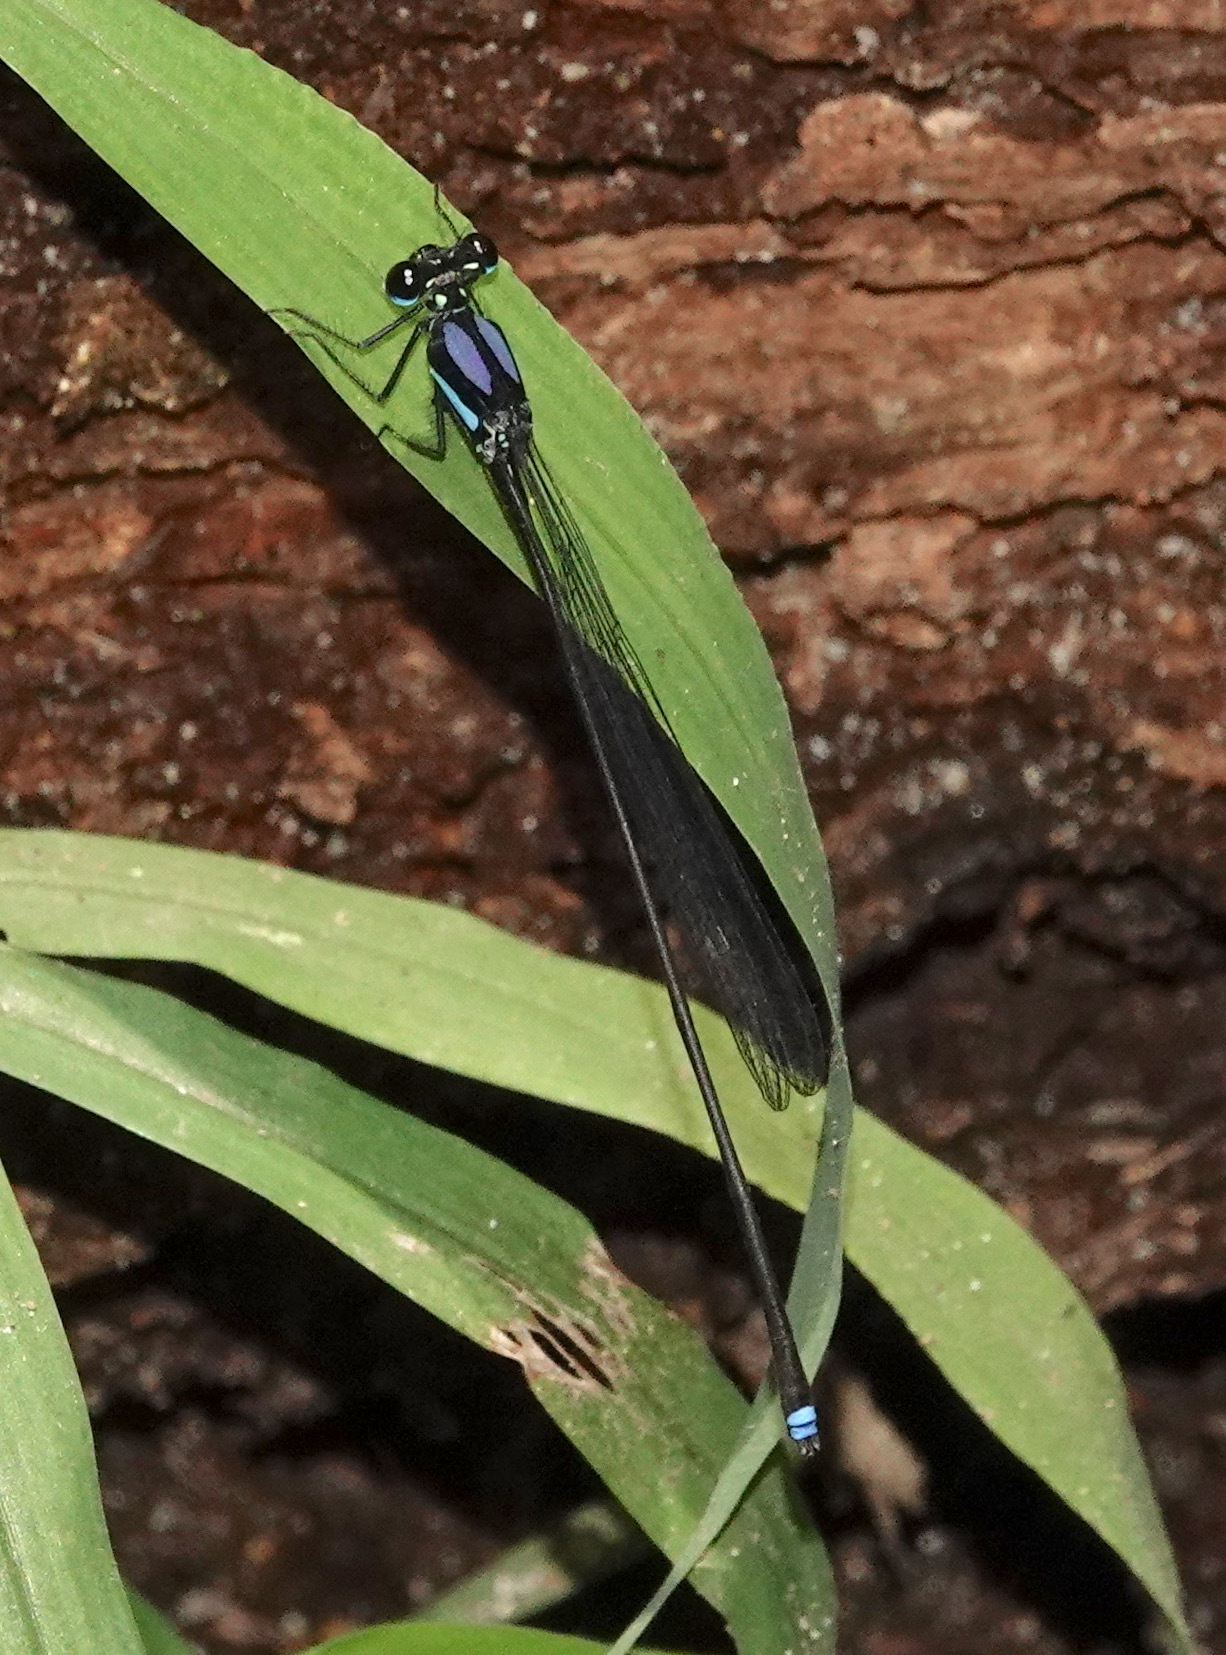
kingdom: Animalia
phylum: Arthropoda
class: Insecta
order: Odonata
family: Platycnemididae
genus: Indocnemis
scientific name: Indocnemis orang
